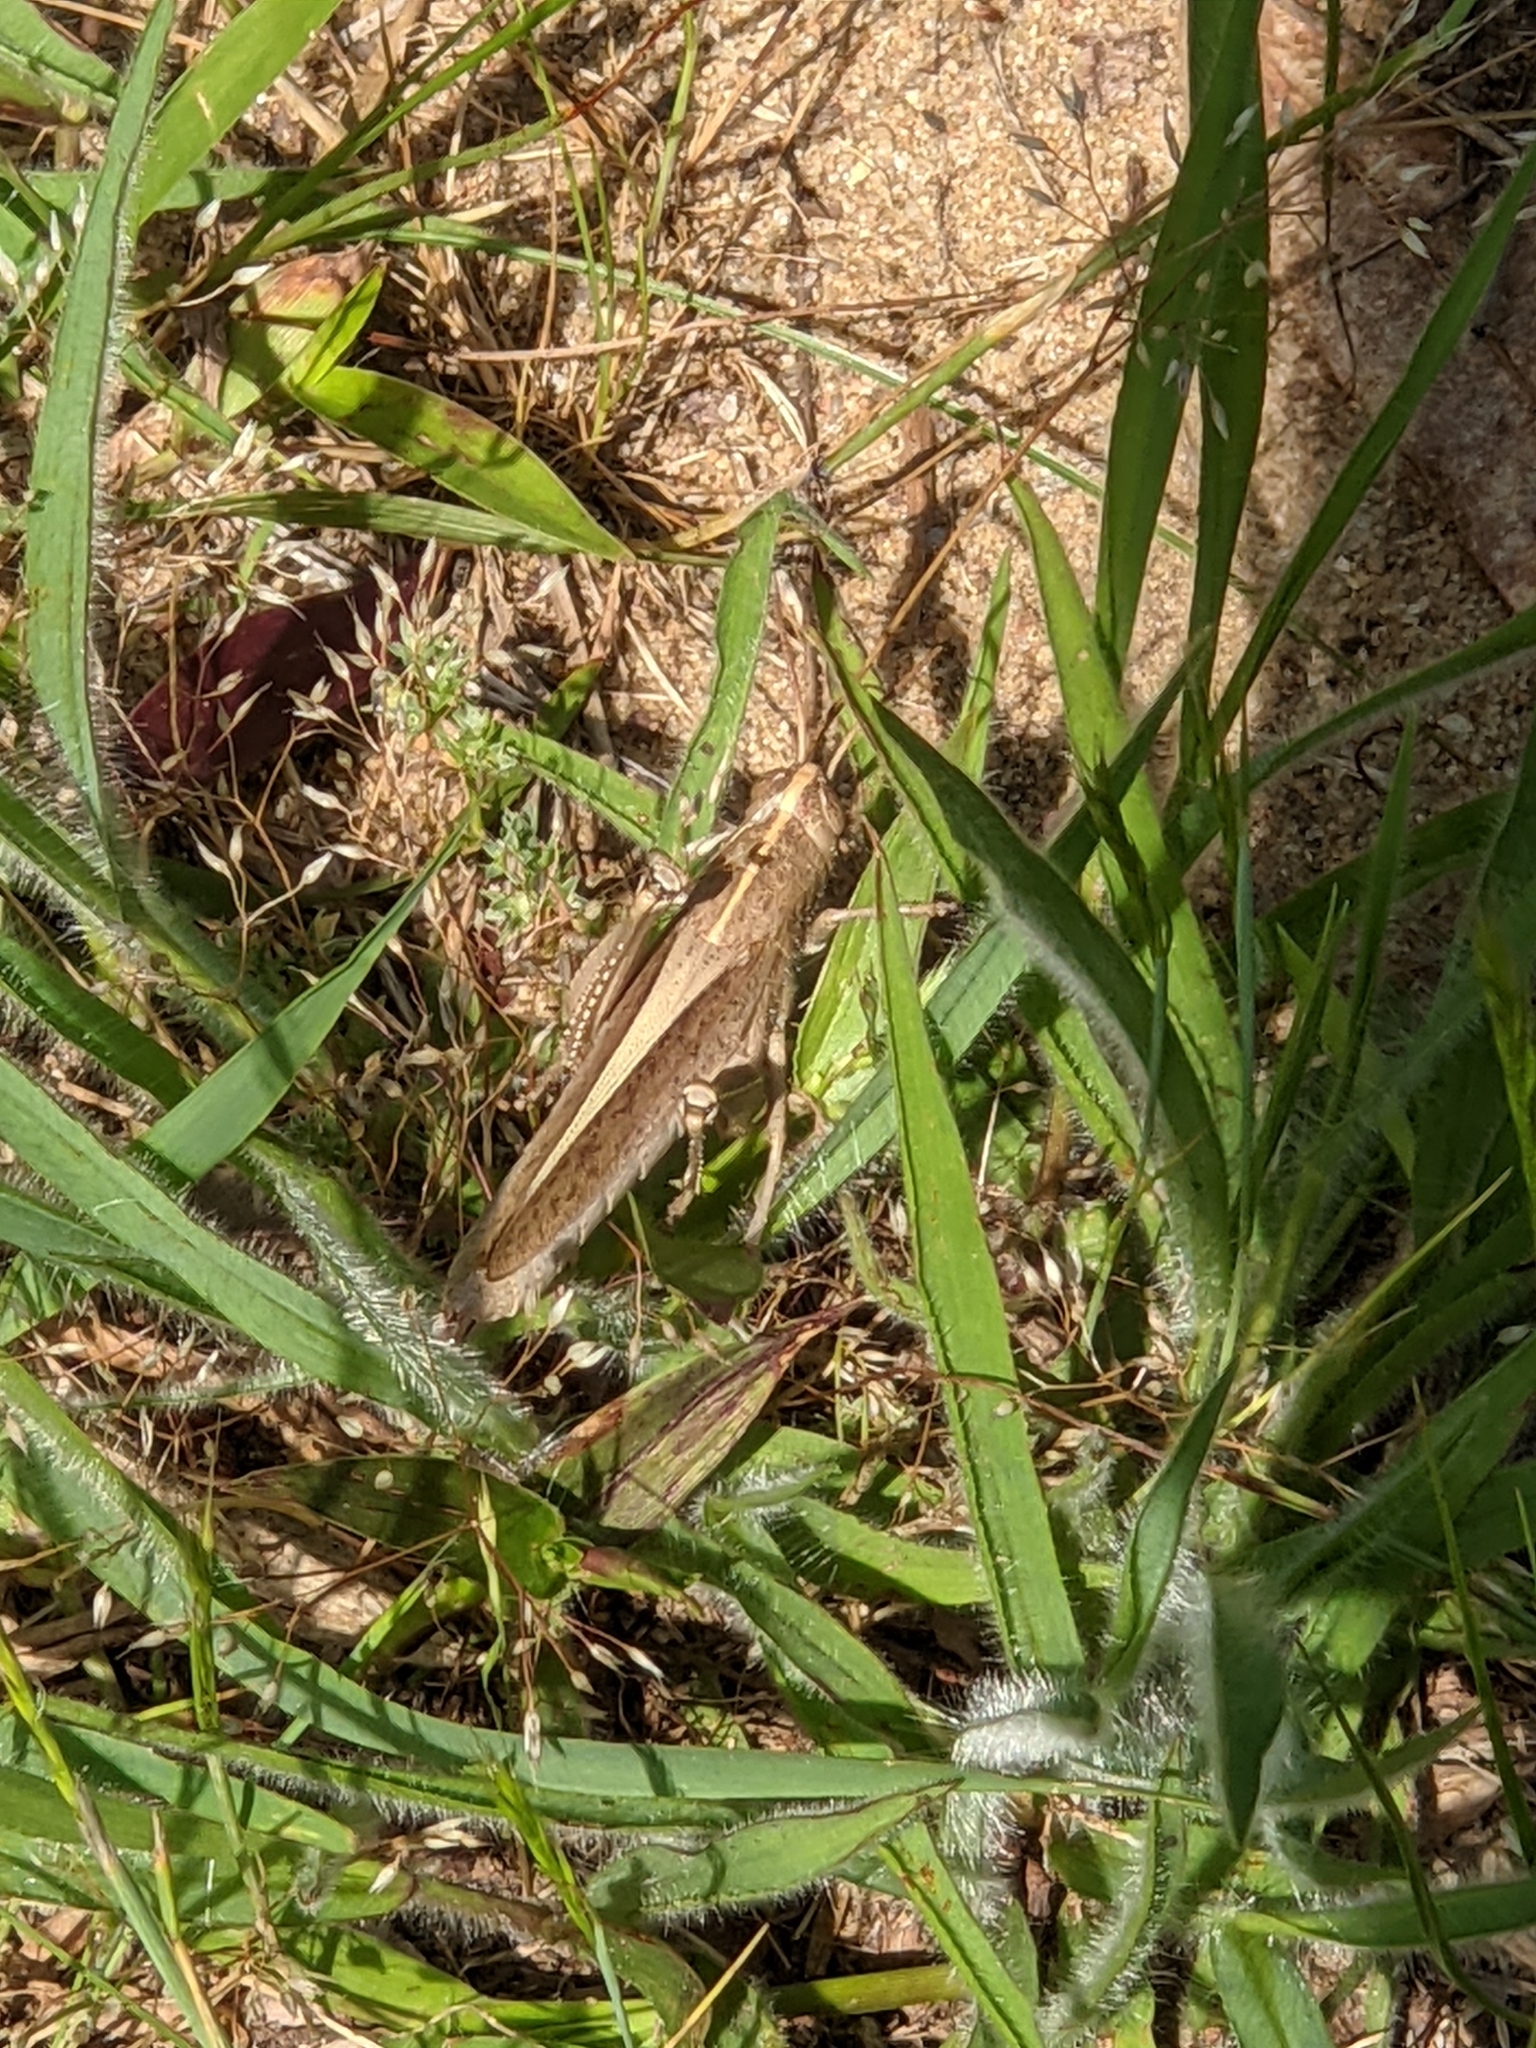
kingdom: Animalia
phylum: Arthropoda
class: Insecta
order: Orthoptera
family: Acrididae
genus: Schistocerca
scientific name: Schistocerca damnifica
